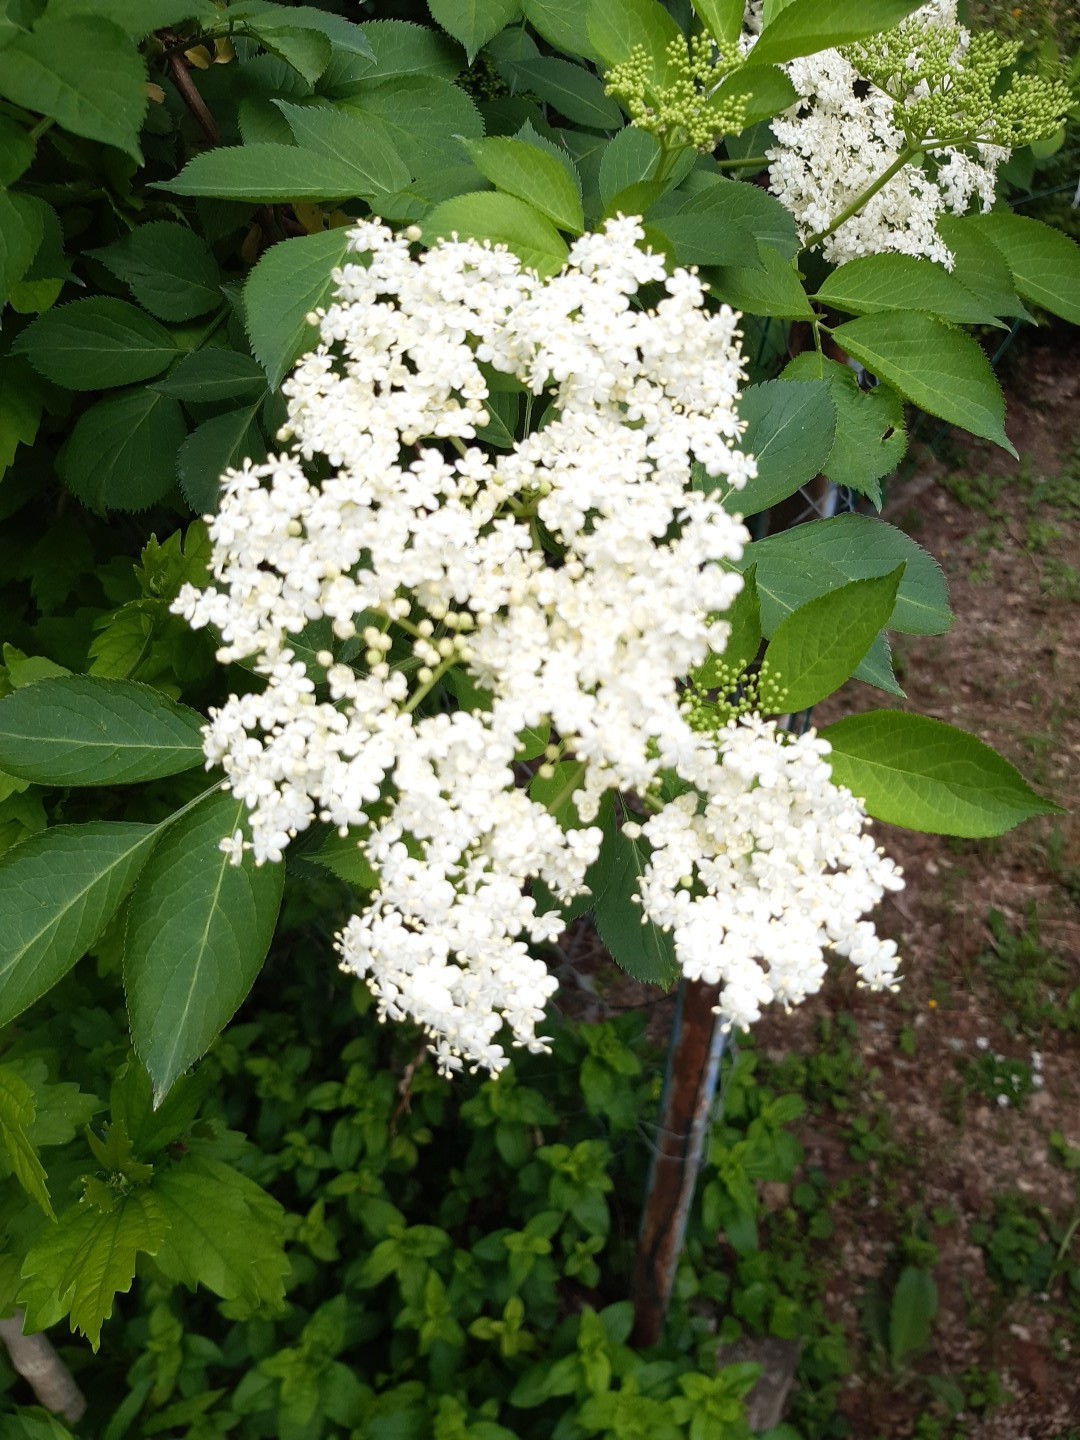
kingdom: Plantae
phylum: Tracheophyta
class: Magnoliopsida
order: Dipsacales
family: Viburnaceae
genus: Sambucus
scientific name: Sambucus nigra
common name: Elder
